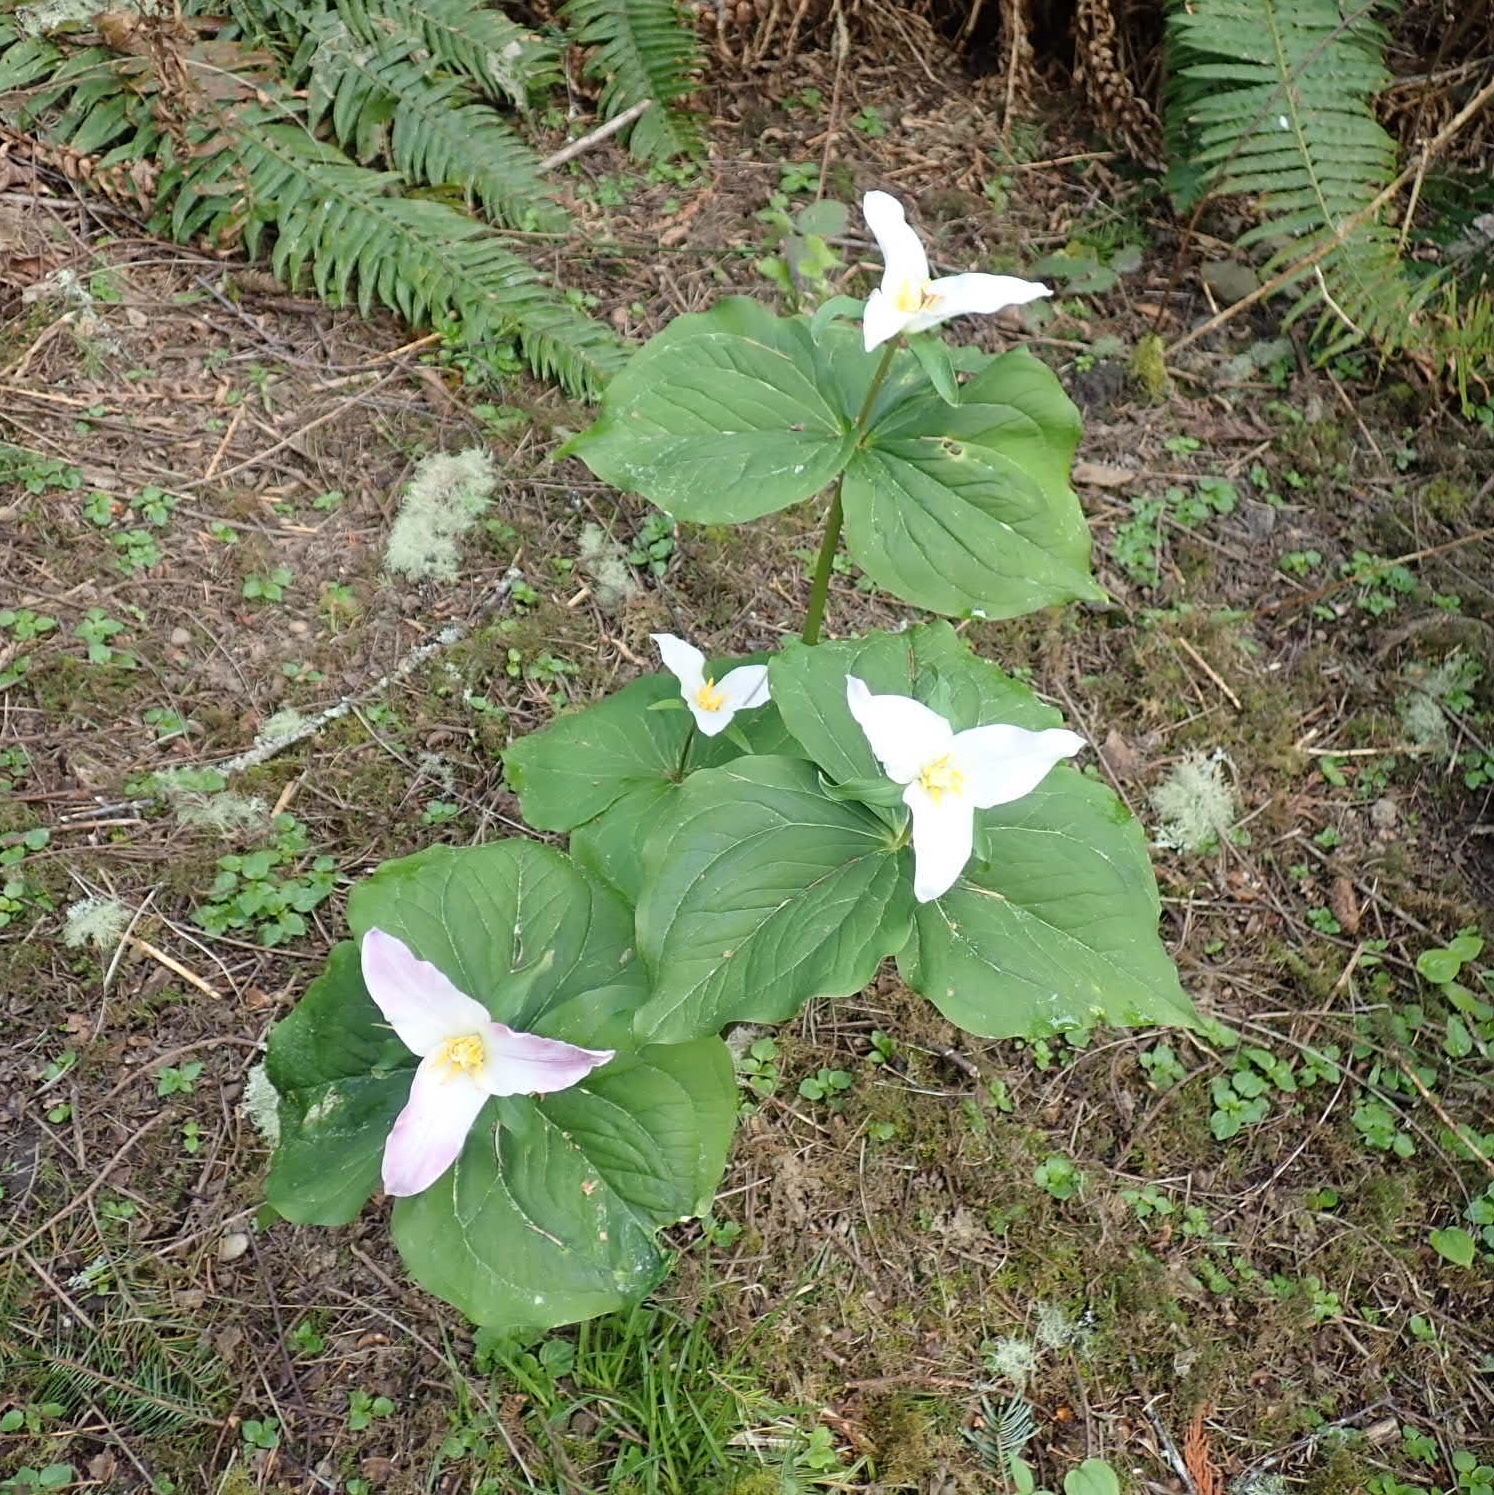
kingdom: Plantae
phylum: Tracheophyta
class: Liliopsida
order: Liliales
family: Melanthiaceae
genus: Trillium
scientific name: Trillium ovatum
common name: Pacific trillium
